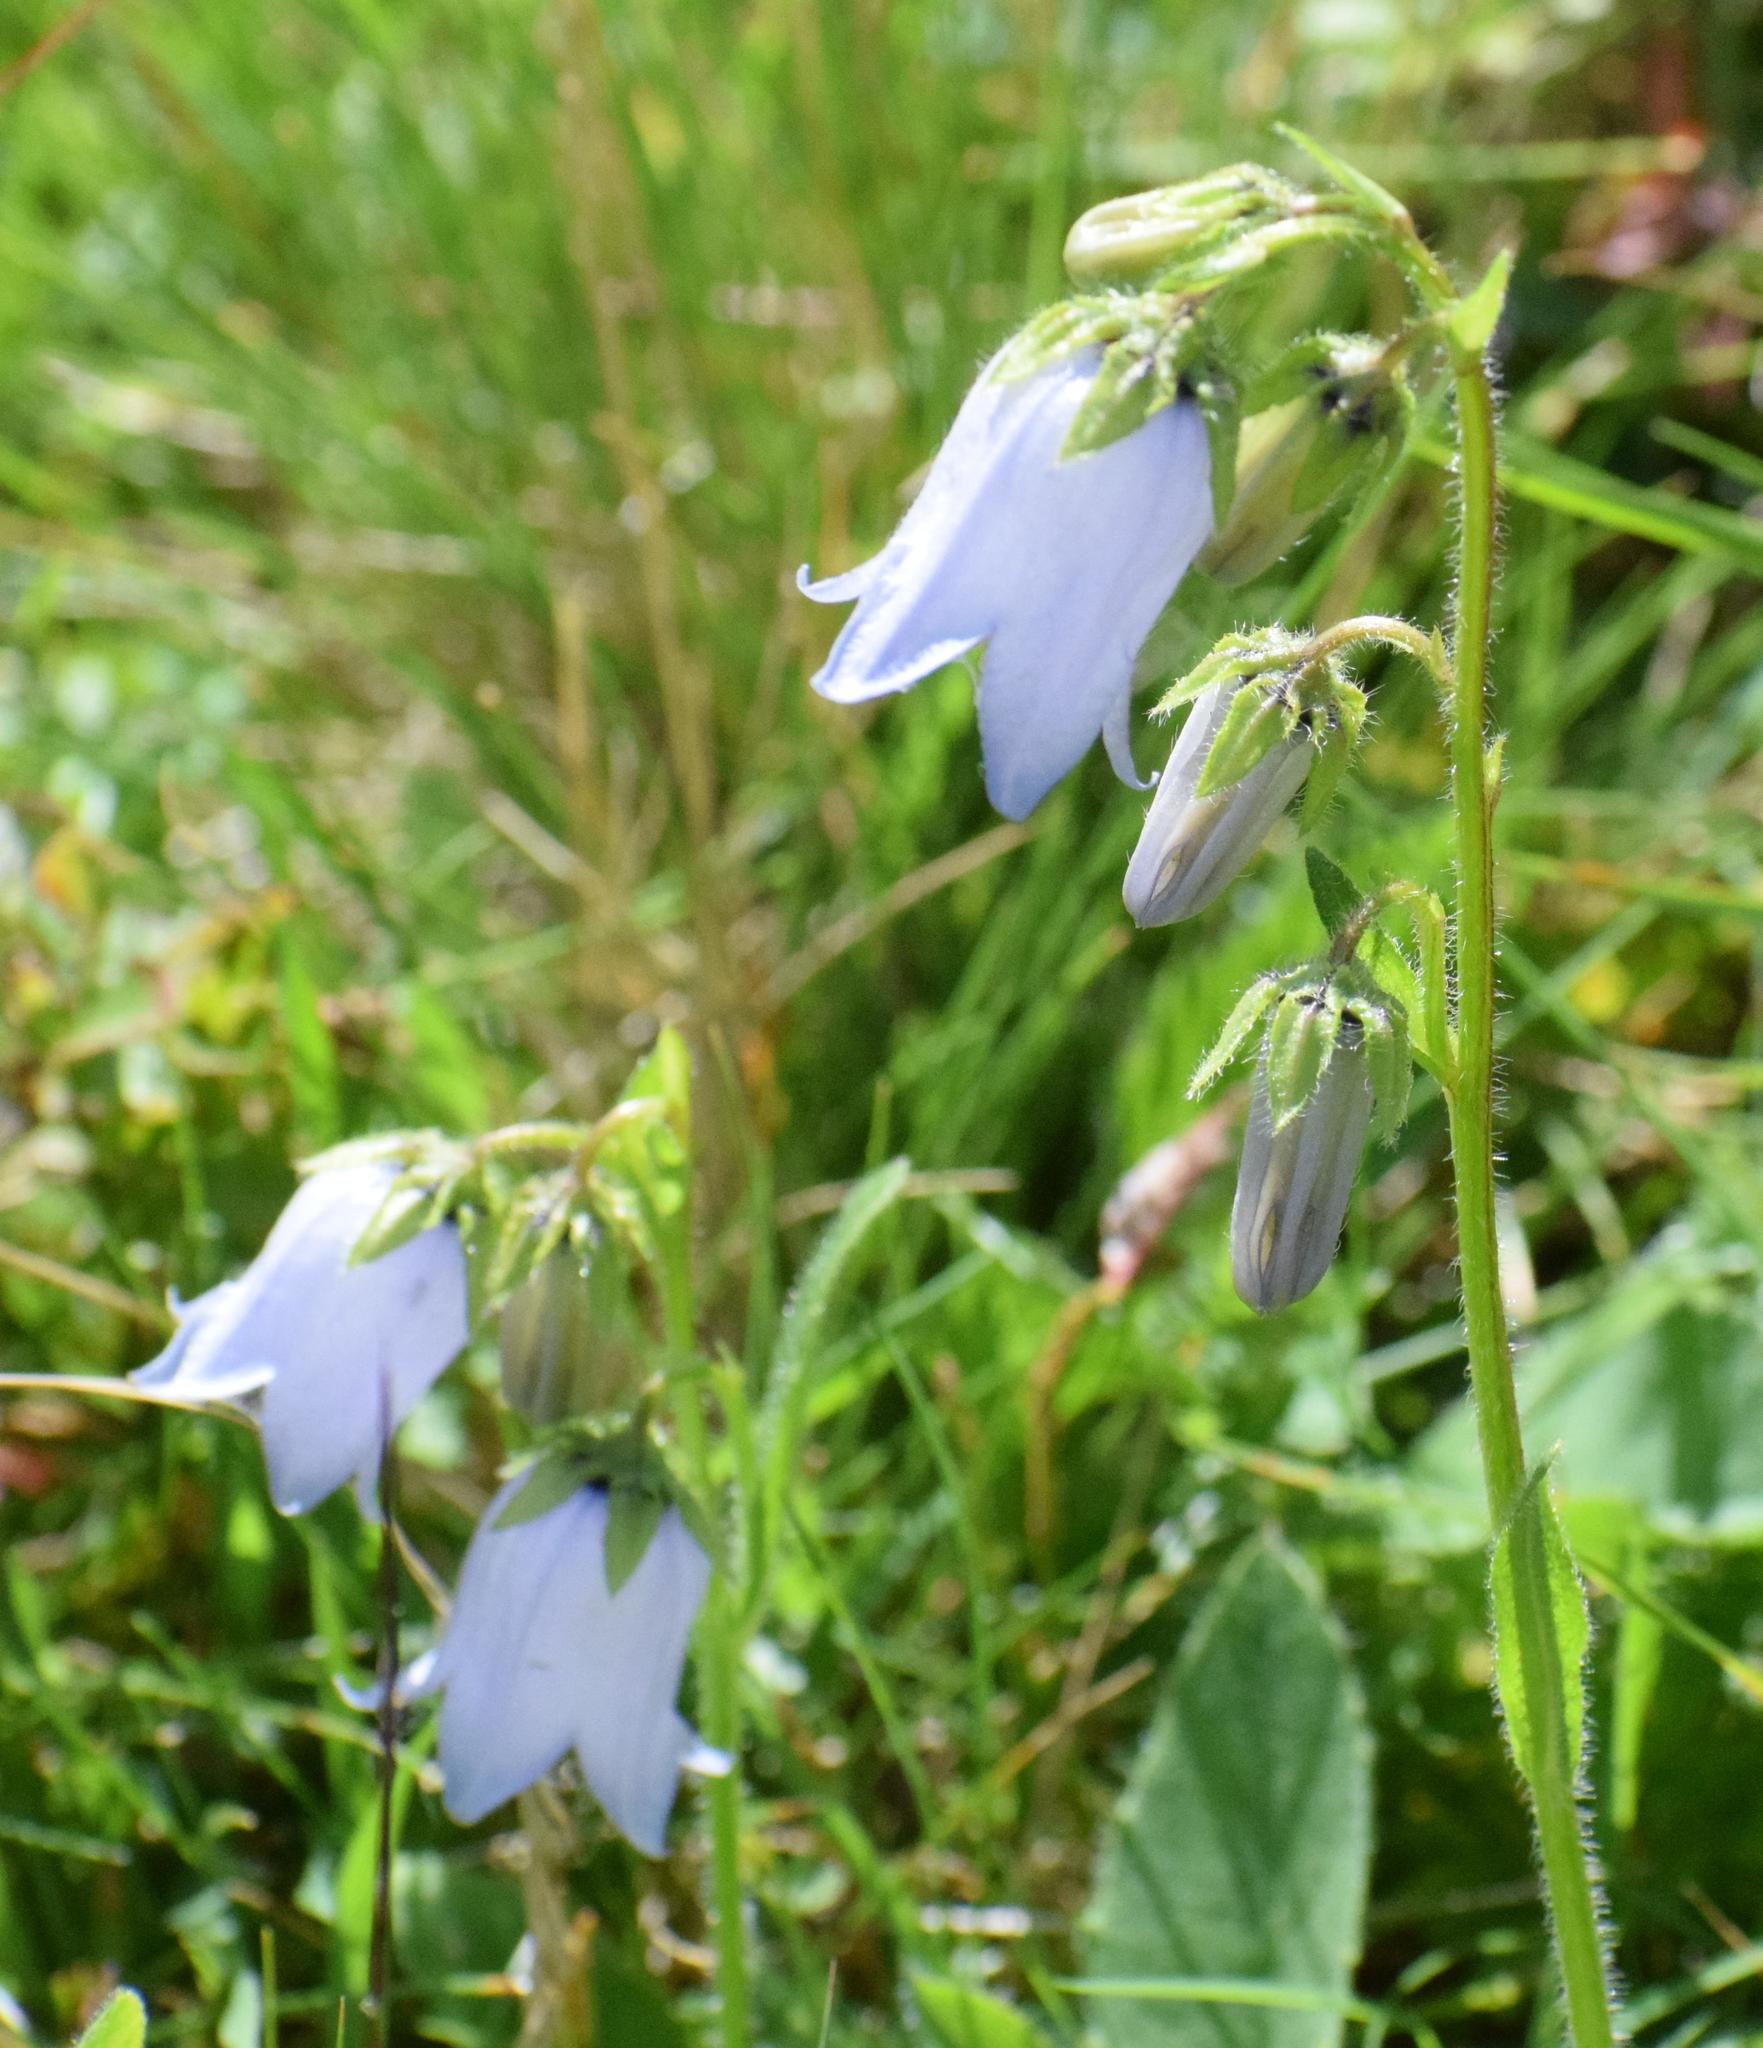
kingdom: Plantae
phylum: Tracheophyta
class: Magnoliopsida
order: Asterales
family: Campanulaceae
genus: Campanula
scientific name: Campanula barbata
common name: Bearded bellflower
